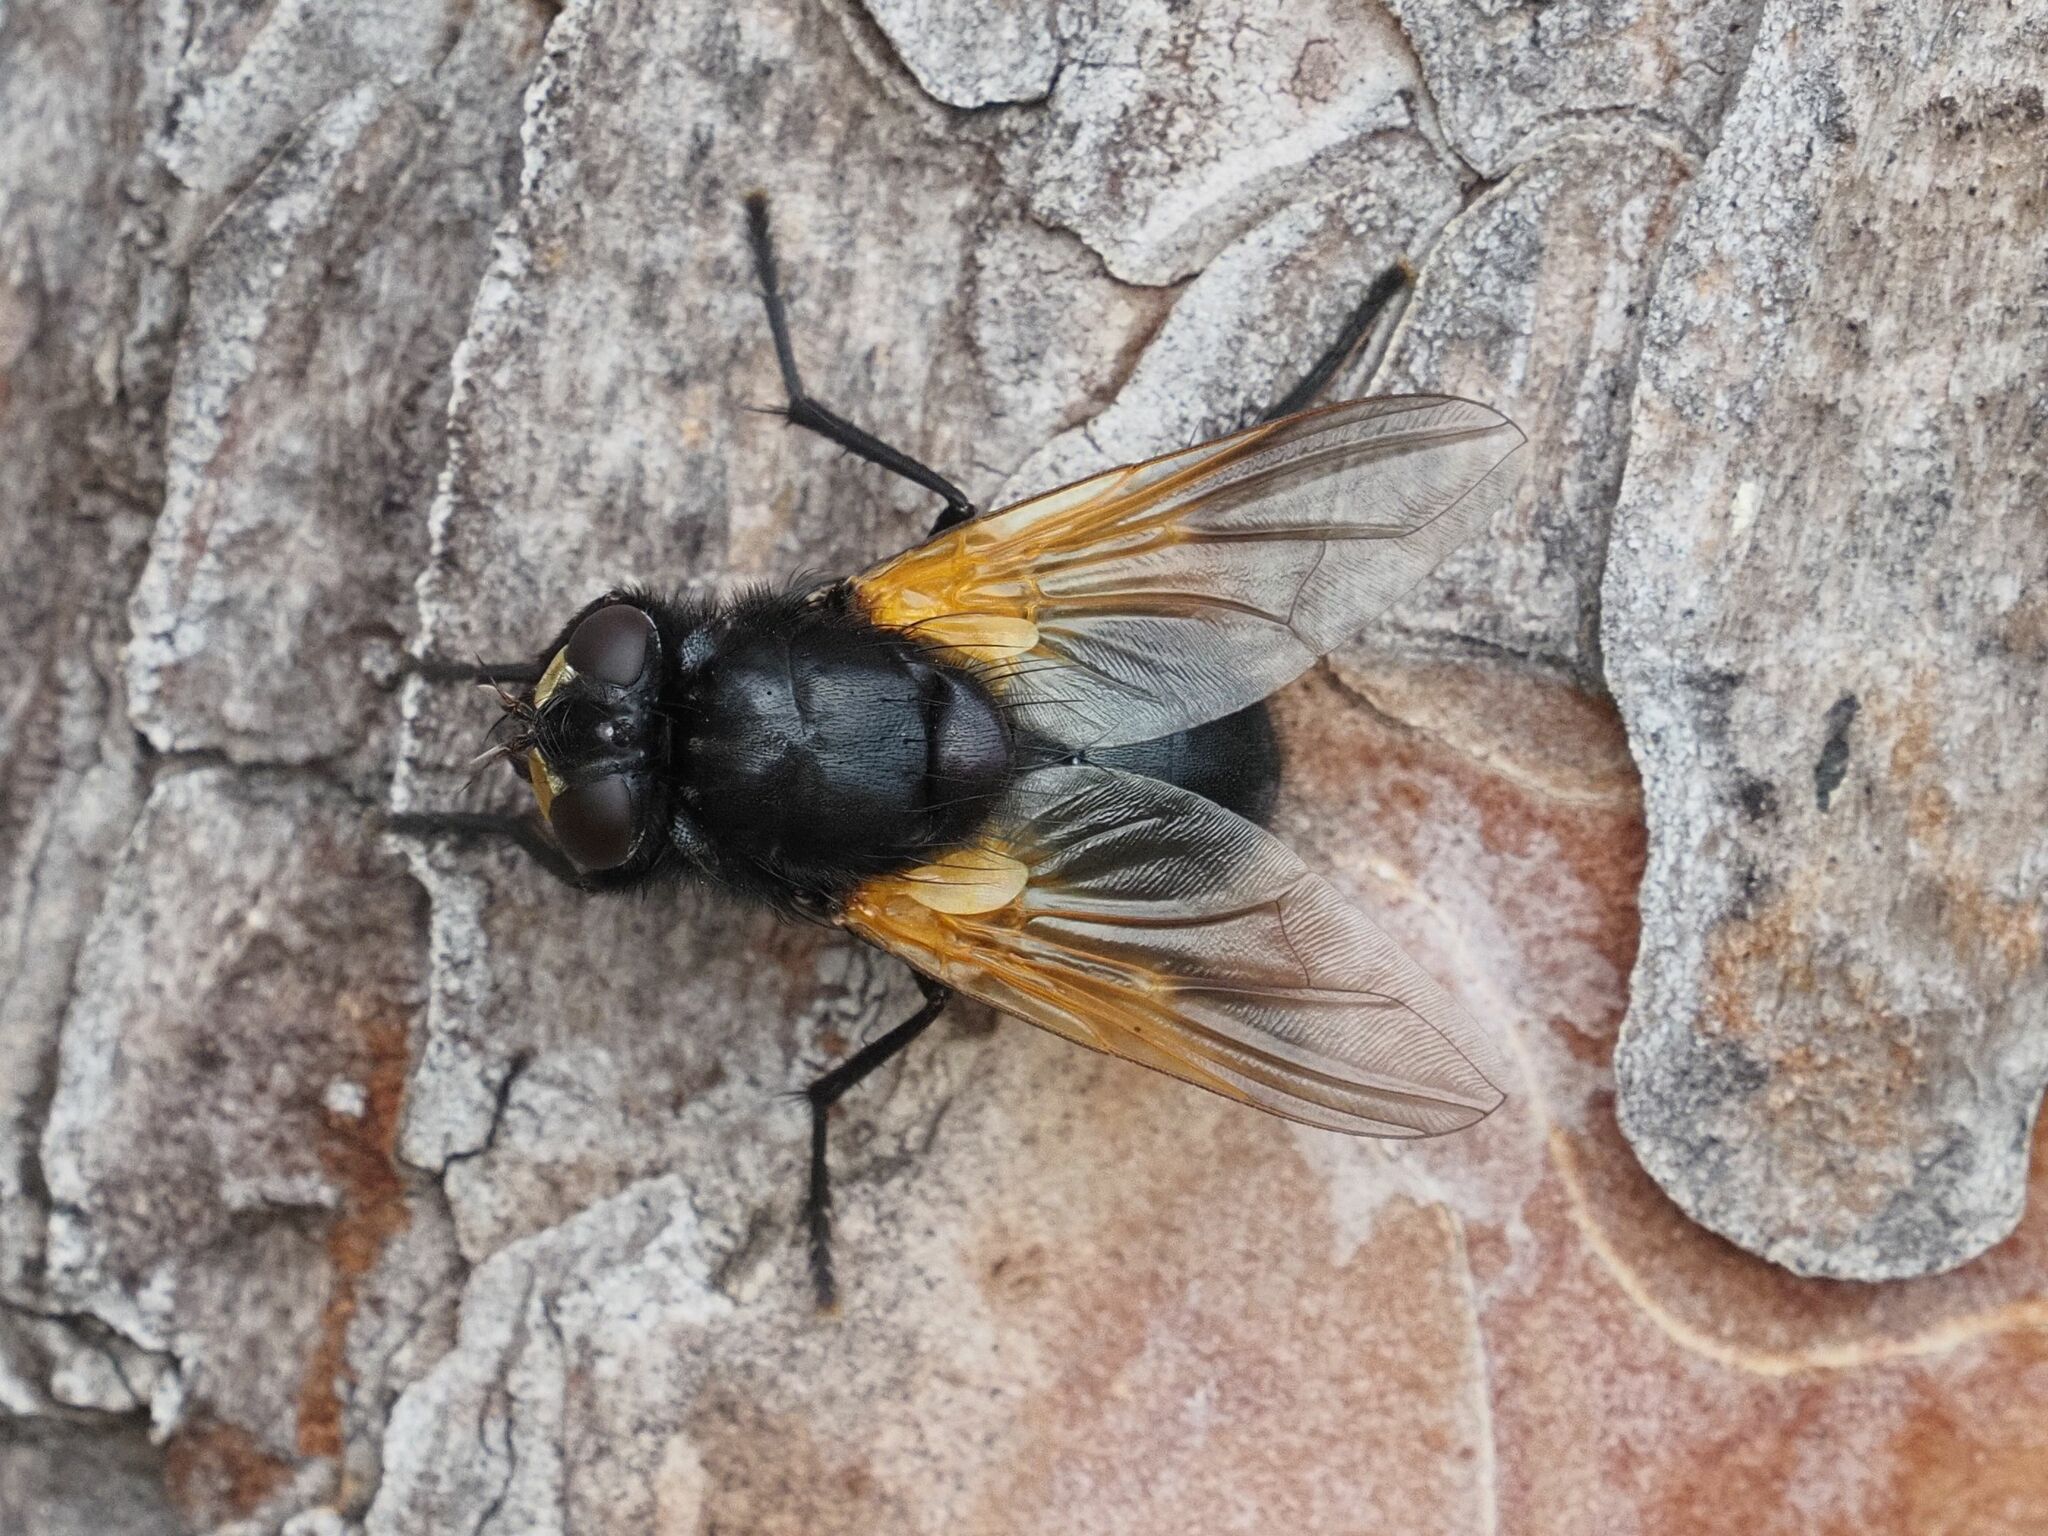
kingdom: Animalia
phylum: Arthropoda
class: Insecta
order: Diptera
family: Muscidae
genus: Mesembrina
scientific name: Mesembrina meridiana
